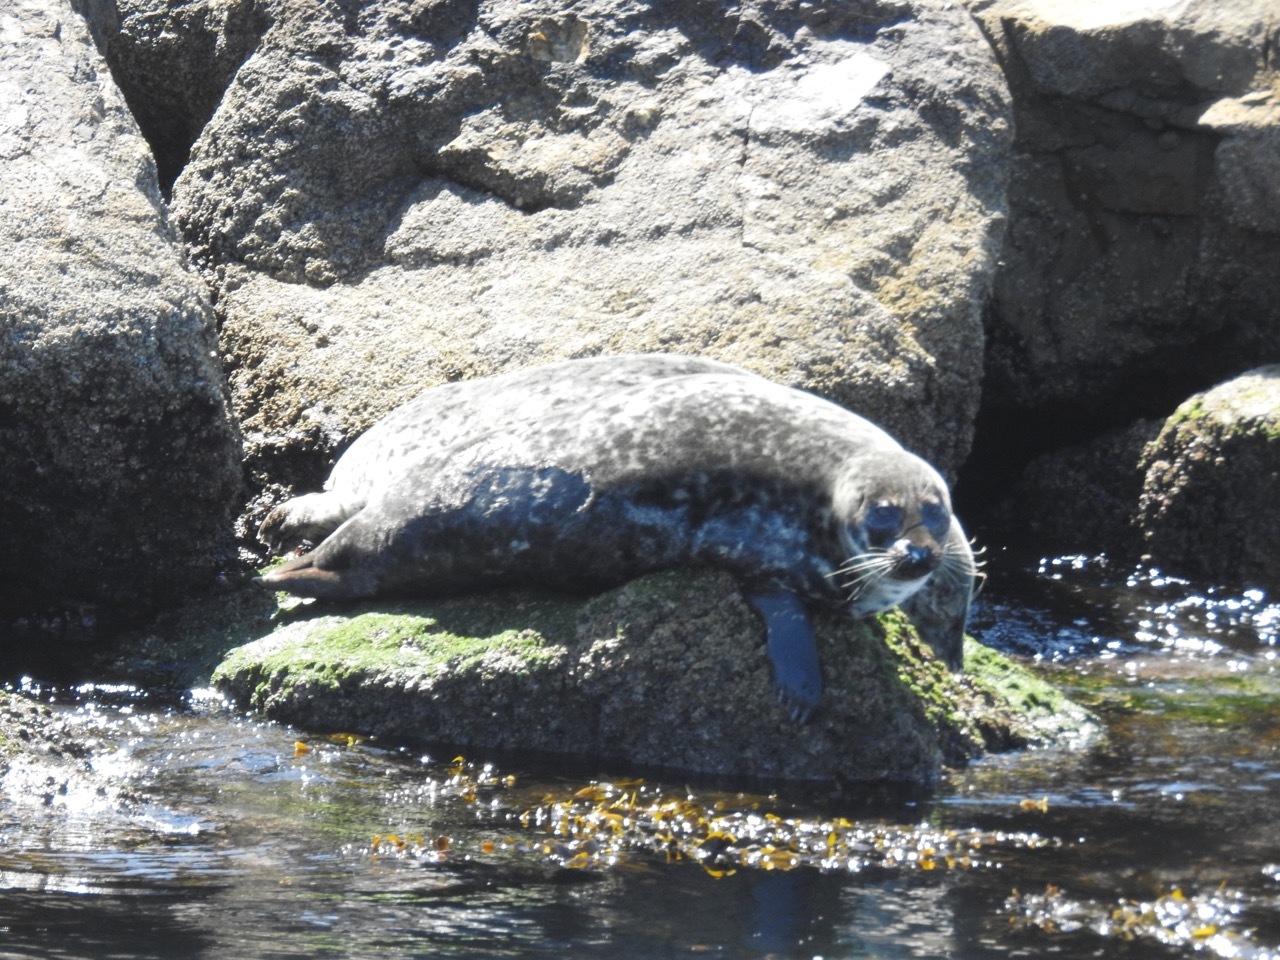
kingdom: Animalia
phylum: Chordata
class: Mammalia
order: Carnivora
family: Phocidae
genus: Phoca
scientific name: Phoca vitulina
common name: Harbor seal
